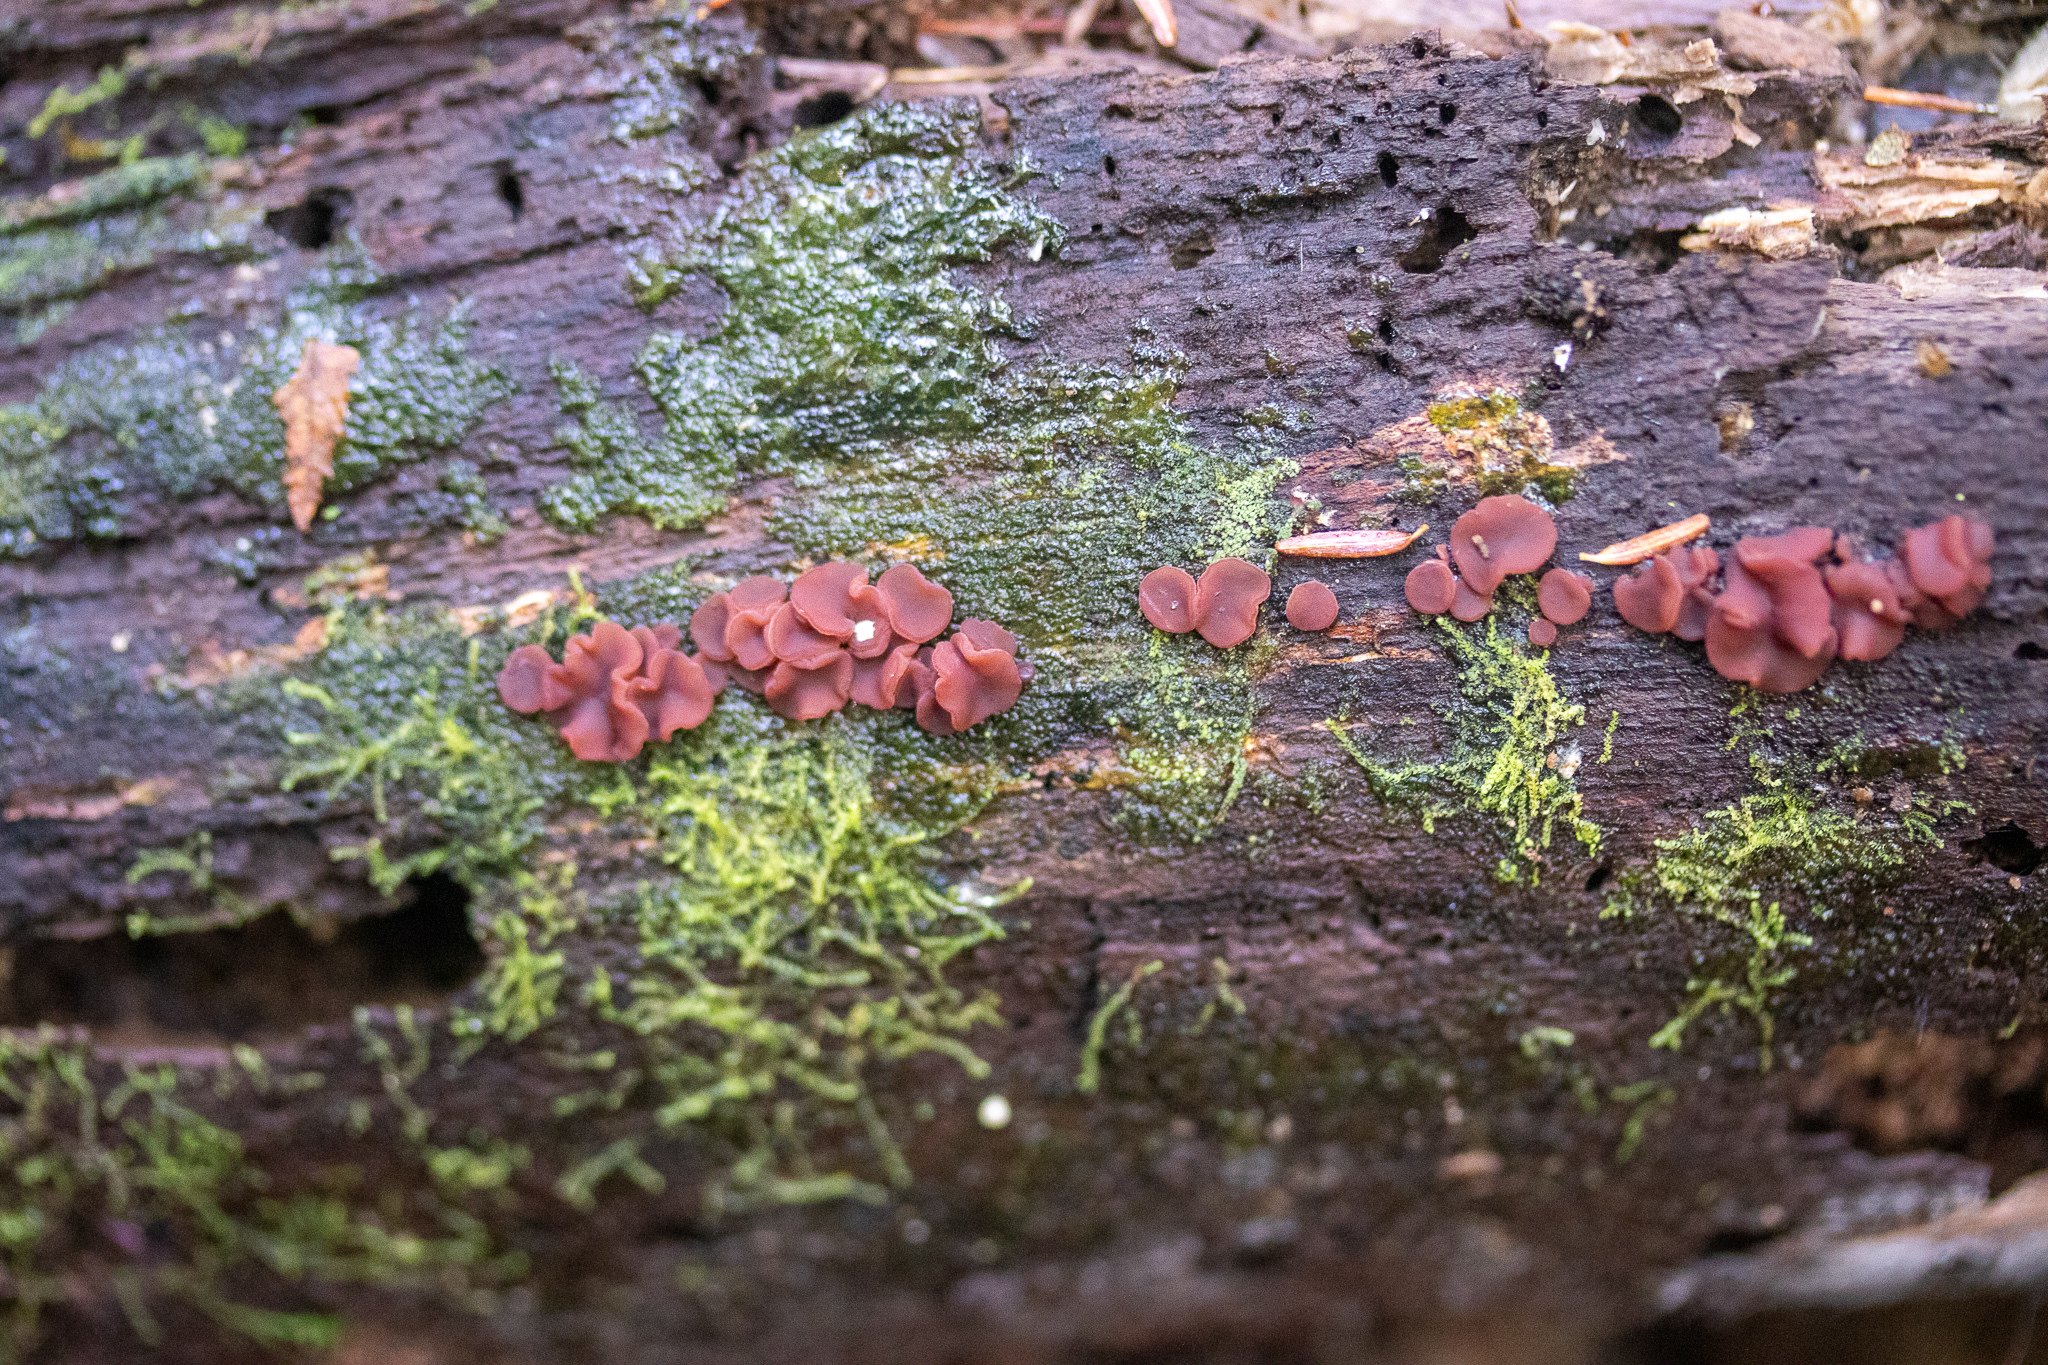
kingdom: Fungi
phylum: Ascomycota
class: Leotiomycetes
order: Helotiales
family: Gelatinodiscaceae
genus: Ascocoryne
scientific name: Ascocoryne sarcoides
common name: Purple jellydisc
